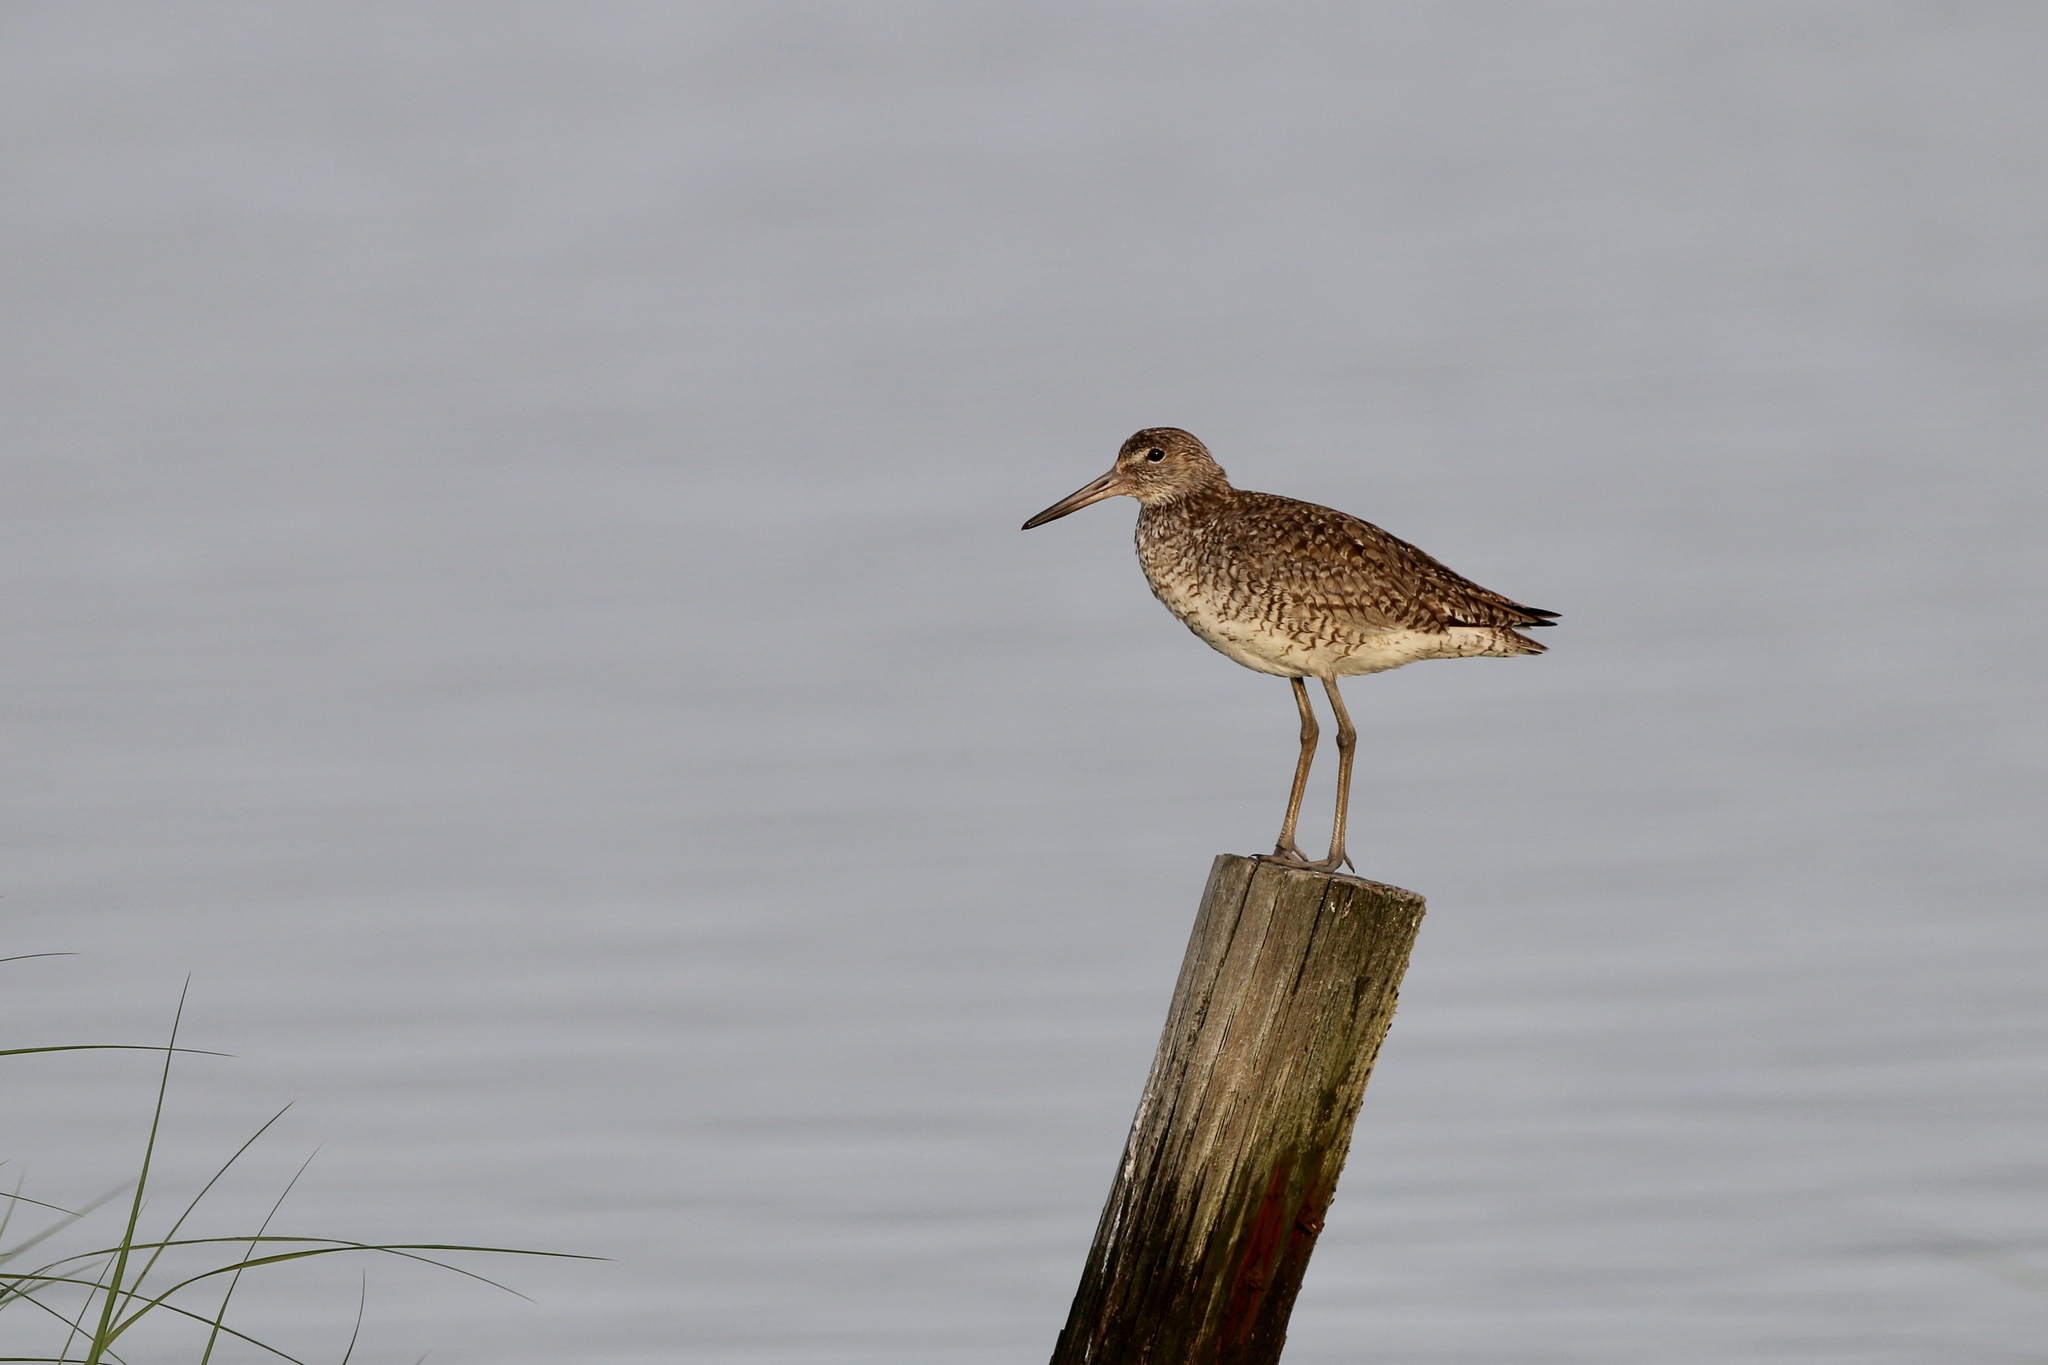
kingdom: Animalia
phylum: Chordata
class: Aves
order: Charadriiformes
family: Scolopacidae
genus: Tringa
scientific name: Tringa semipalmata
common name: Willet
